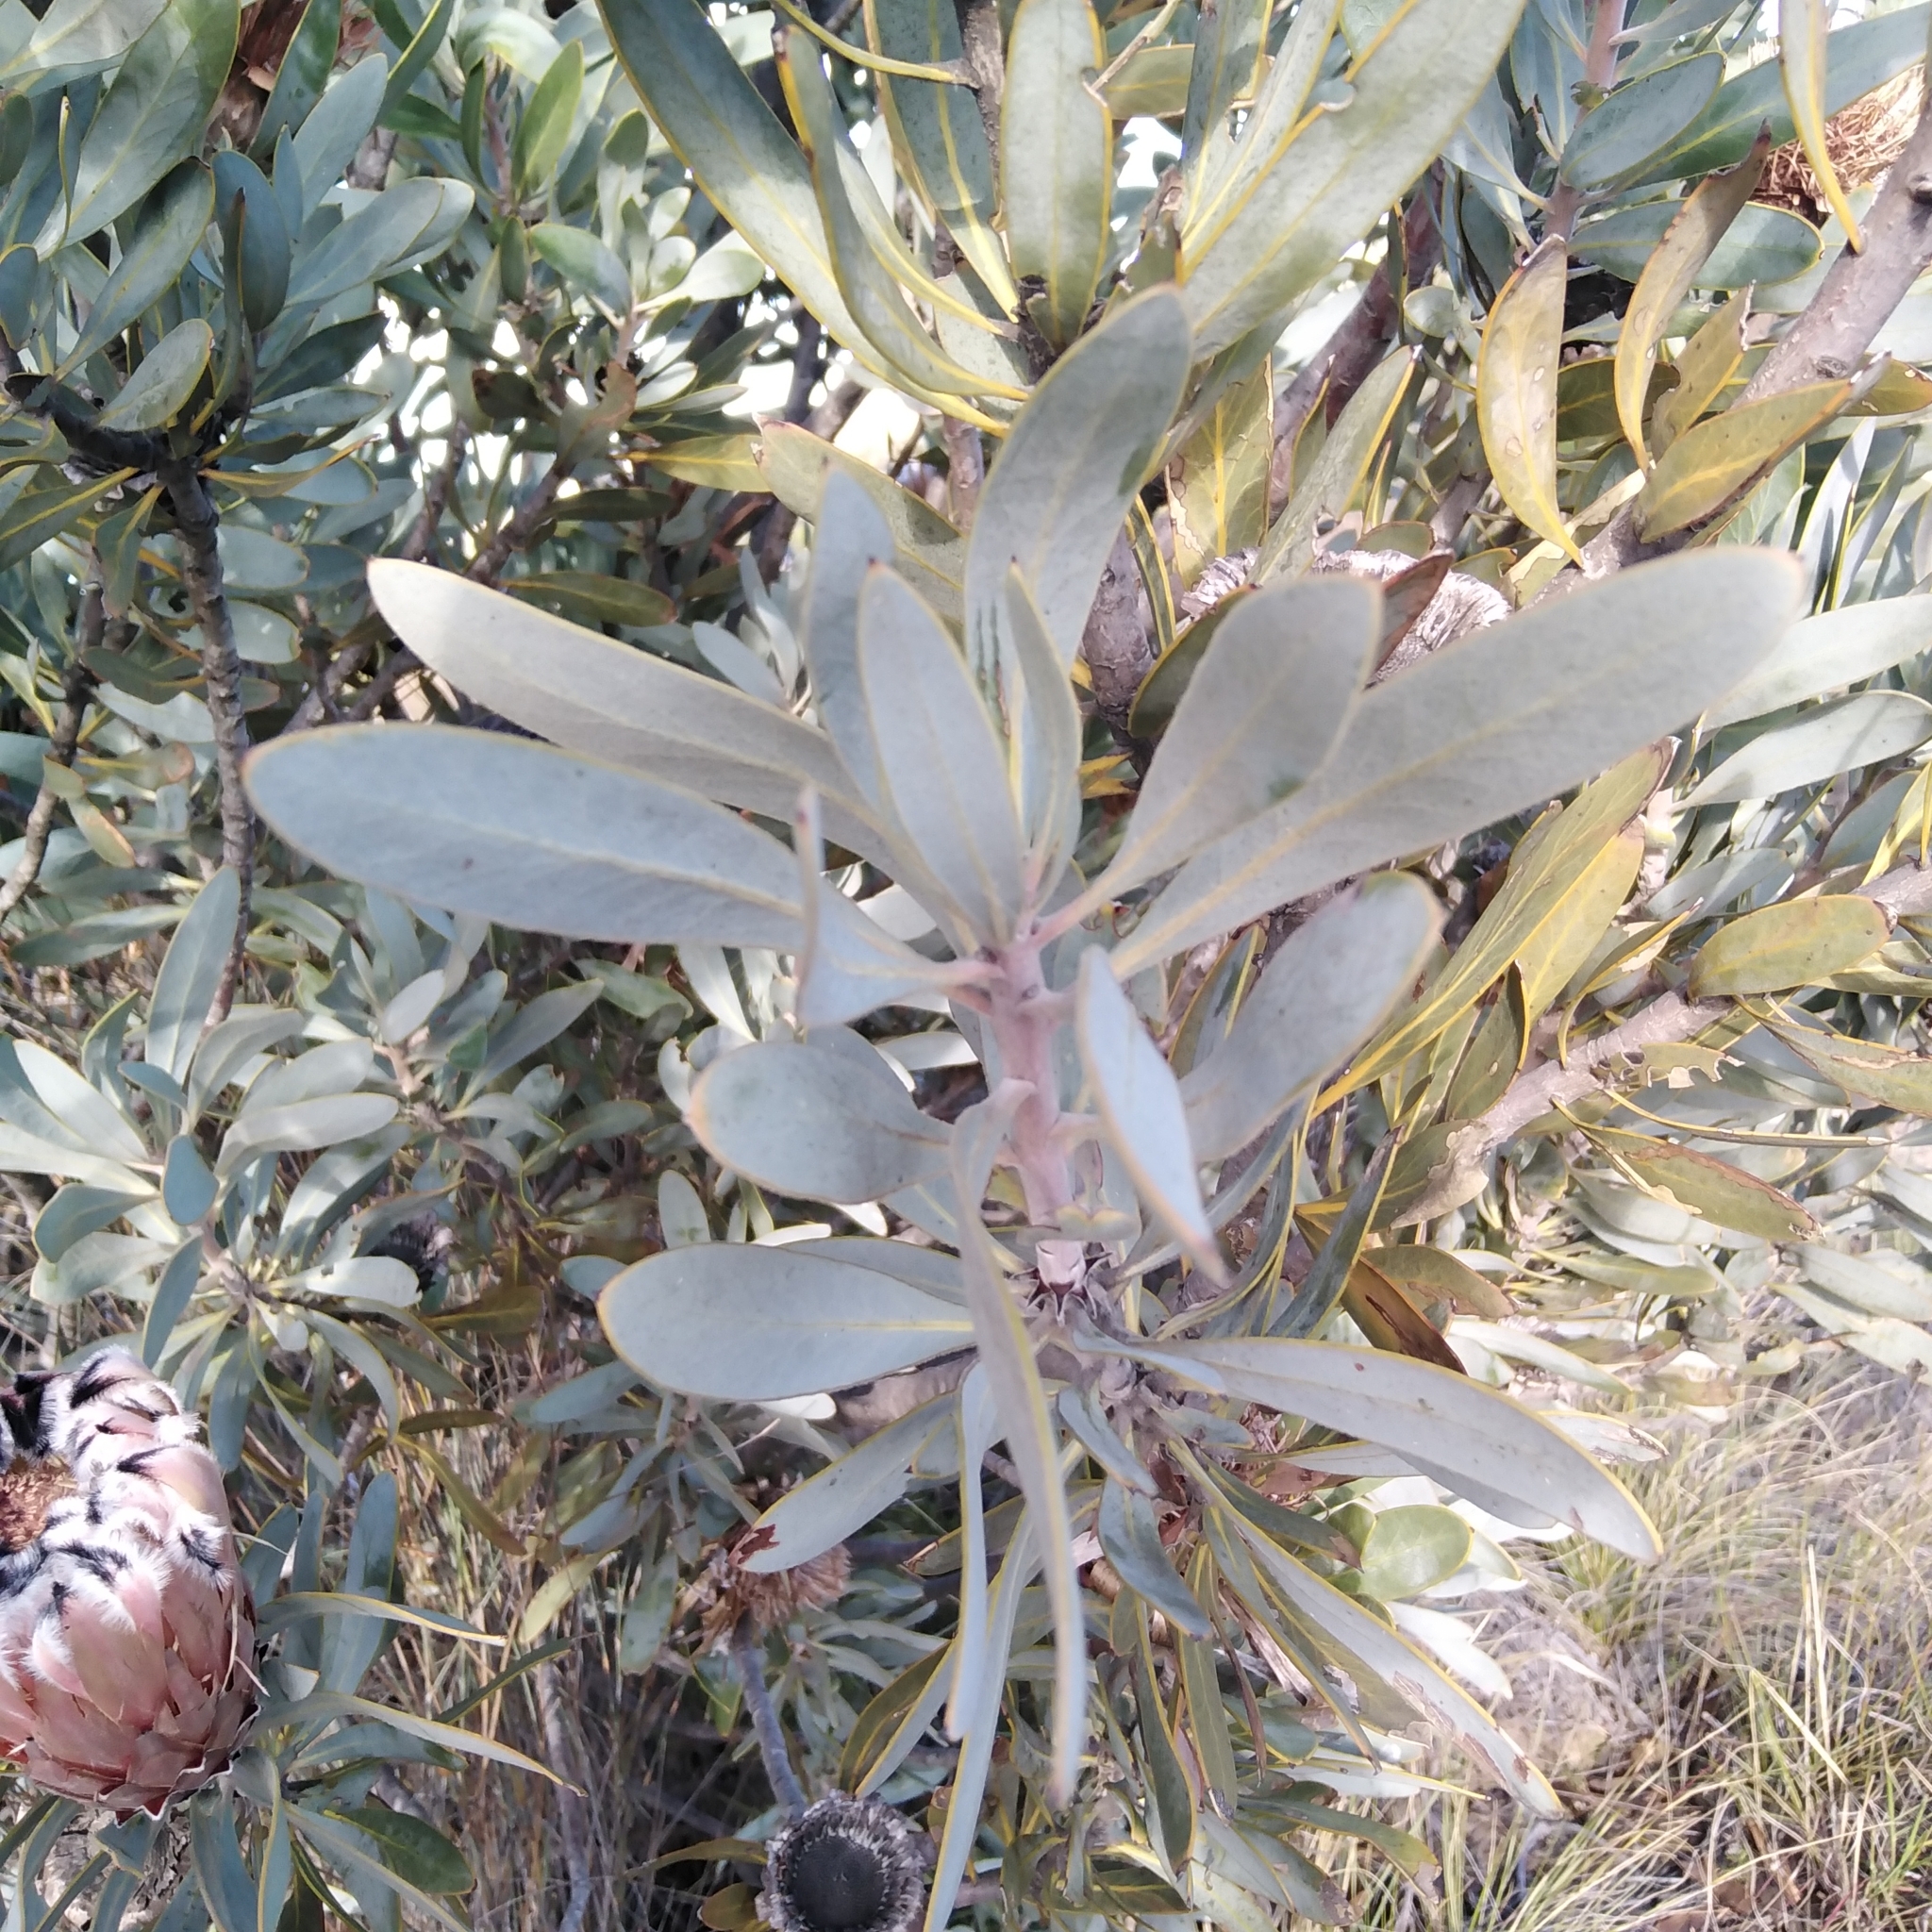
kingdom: Plantae
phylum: Tracheophyta
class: Magnoliopsida
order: Proteales
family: Proteaceae
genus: Protea
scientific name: Protea laurifolia
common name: Grey-leaf sugarbsh
